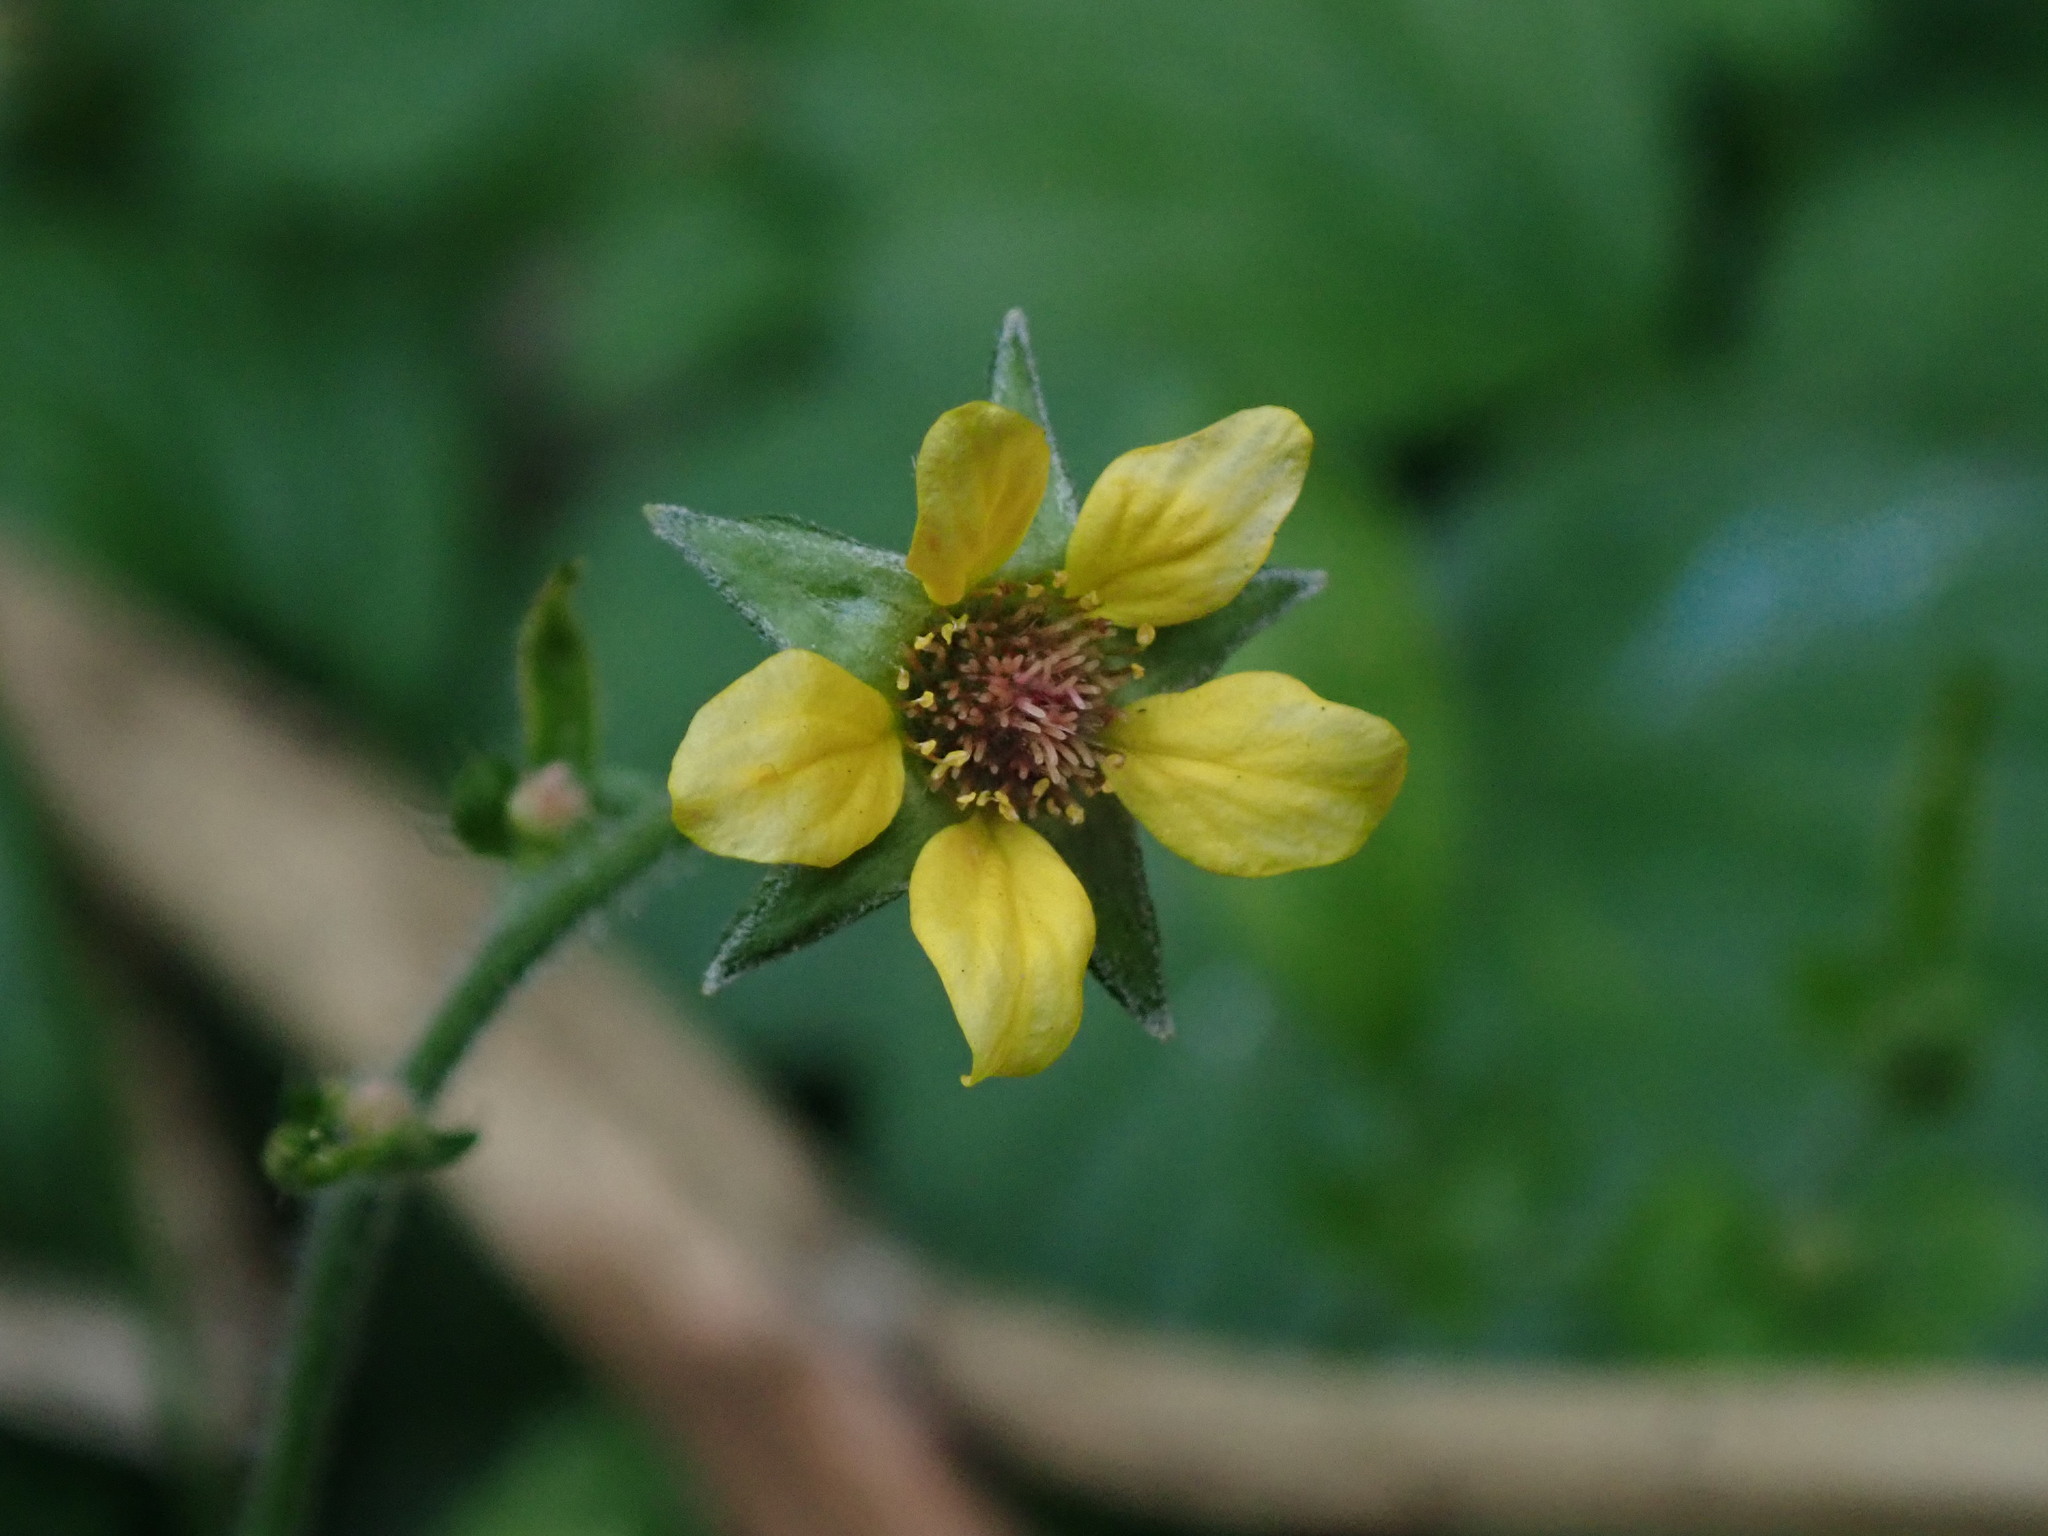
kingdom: Plantae
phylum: Tracheophyta
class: Magnoliopsida
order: Rosales
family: Rosaceae
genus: Geum
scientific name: Geum urbanum
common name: Wood avens
